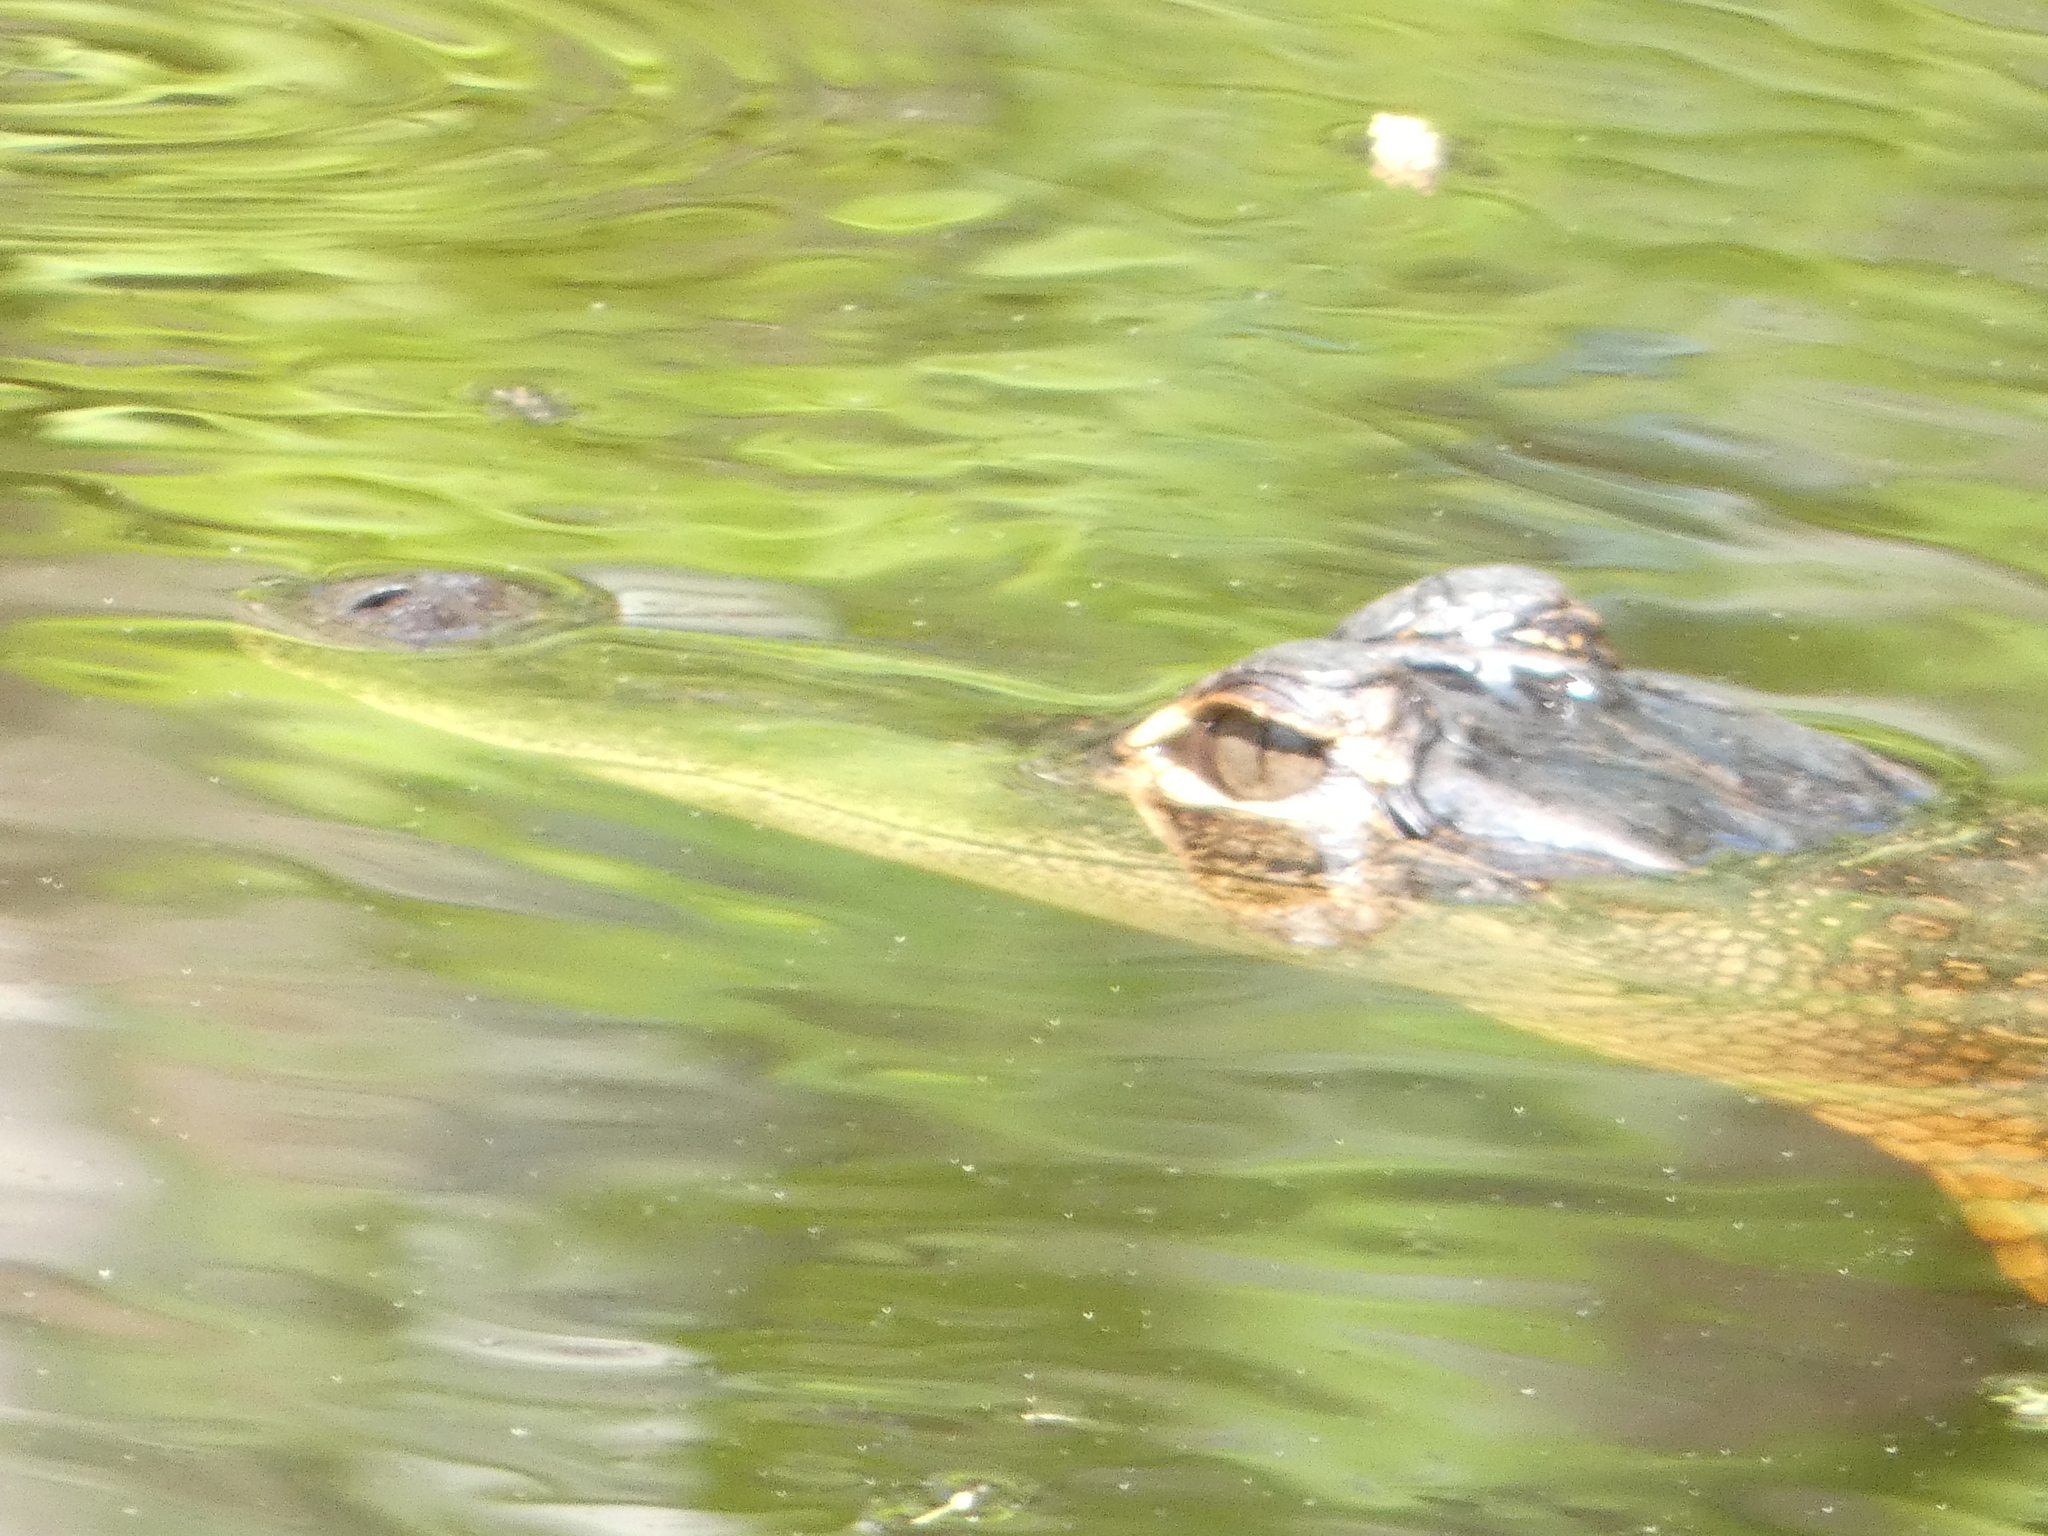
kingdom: Animalia
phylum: Chordata
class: Crocodylia
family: Alligatoridae
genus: Alligator
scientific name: Alligator mississippiensis
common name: American alligator
